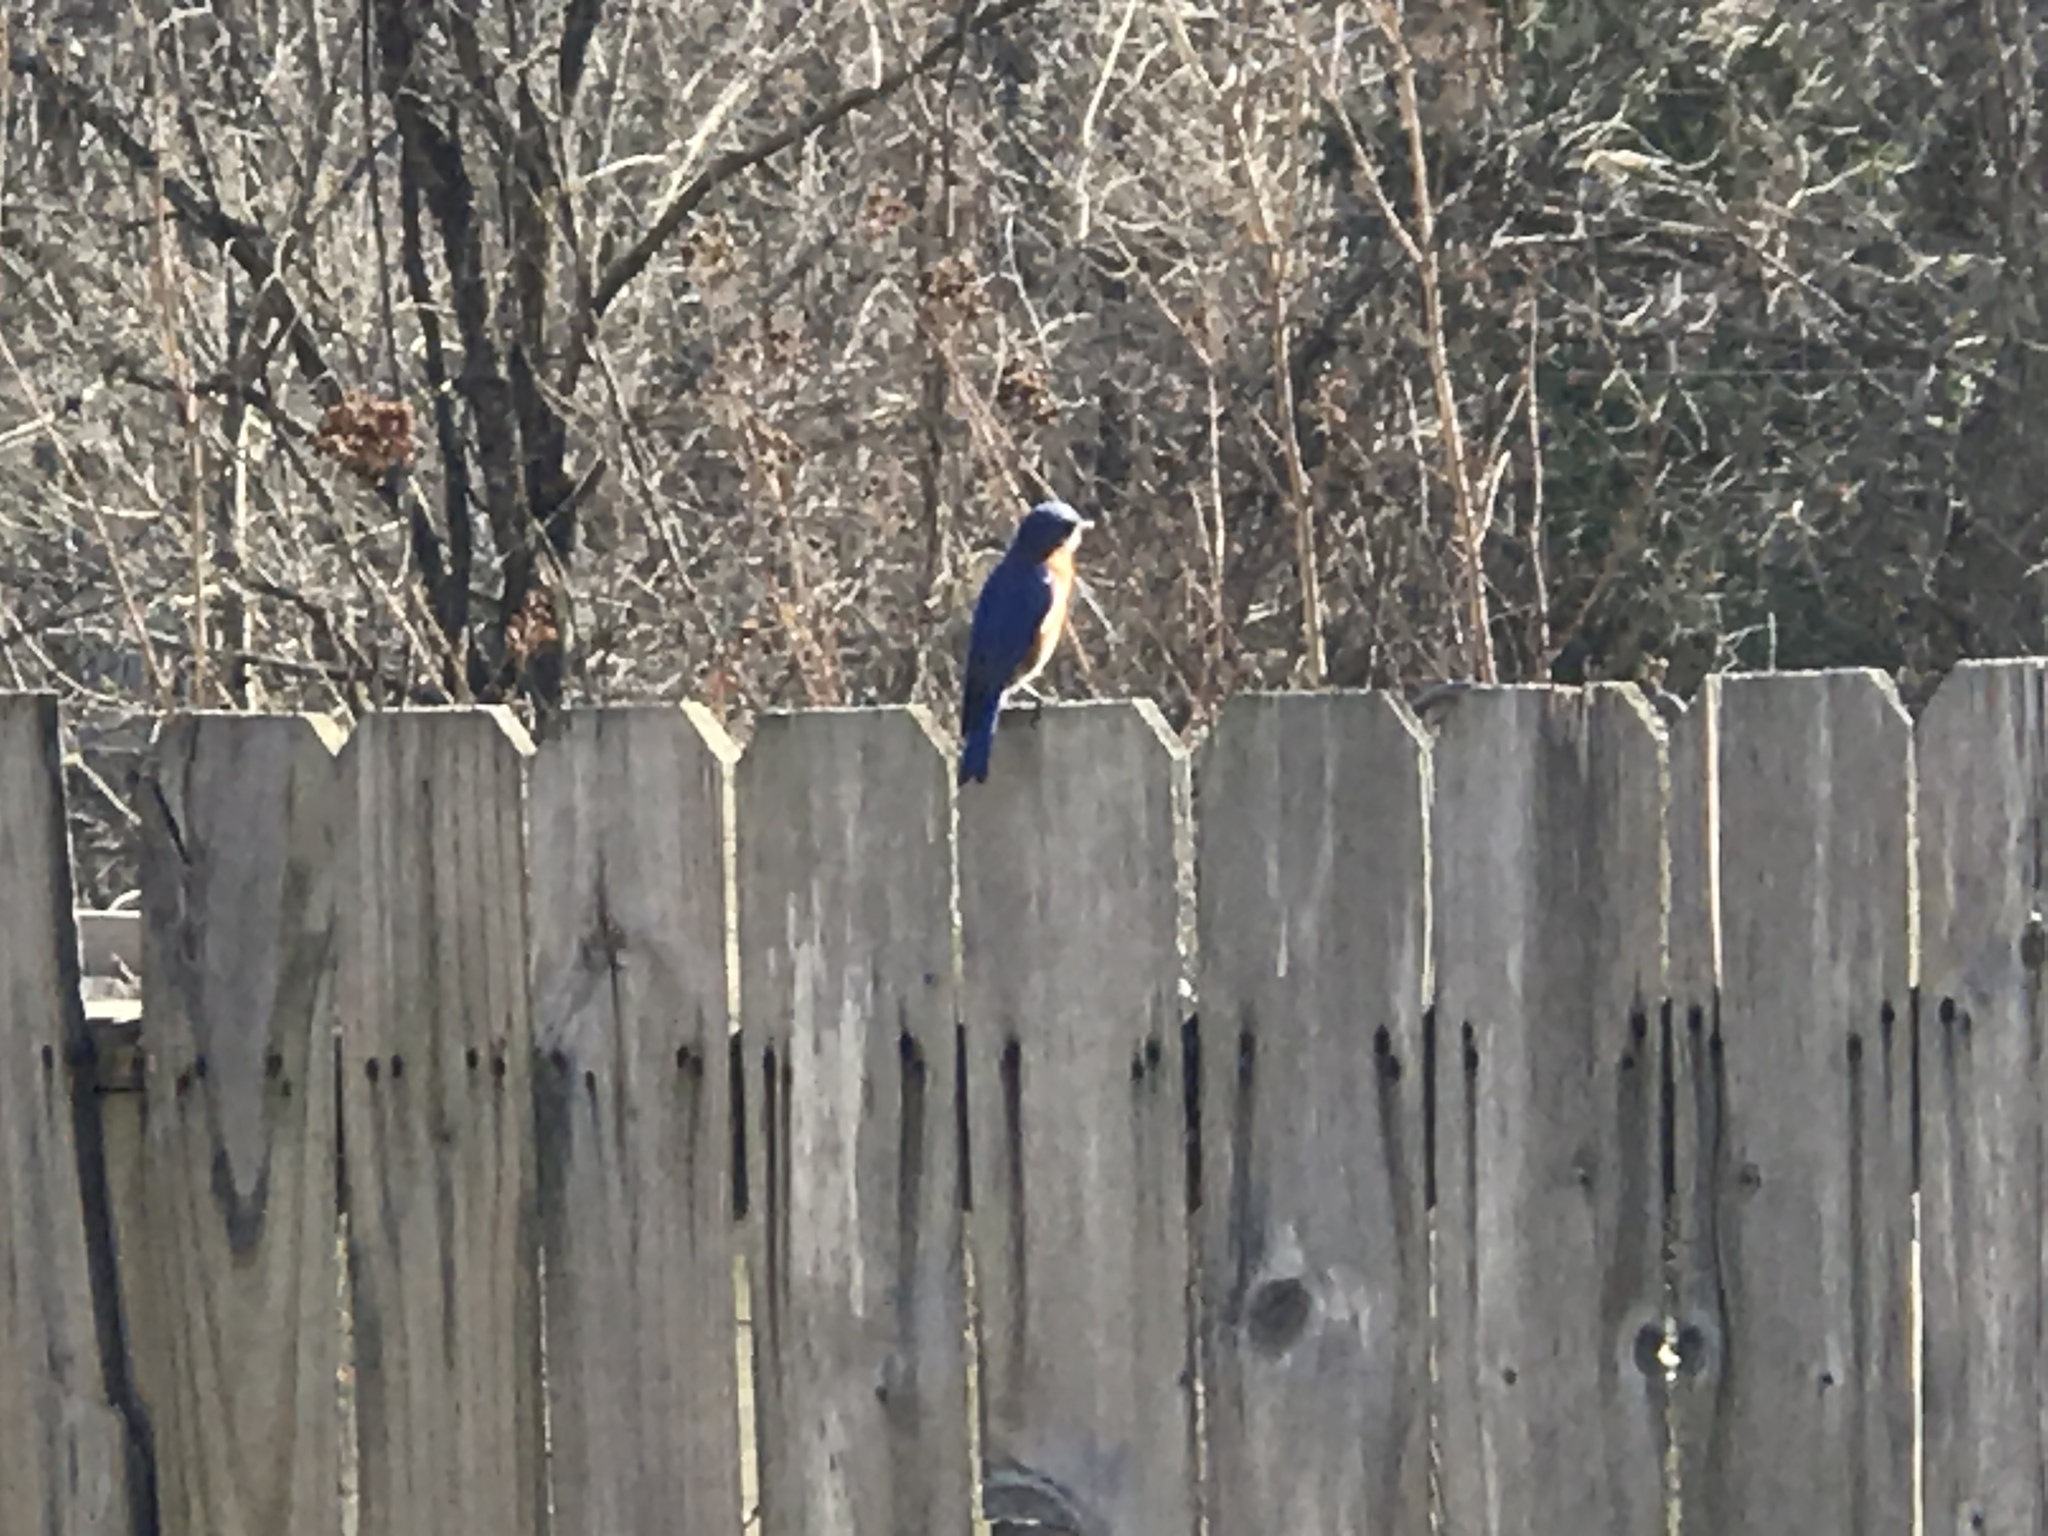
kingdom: Animalia
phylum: Chordata
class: Aves
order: Passeriformes
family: Turdidae
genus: Sialia
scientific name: Sialia sialis
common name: Eastern bluebird
